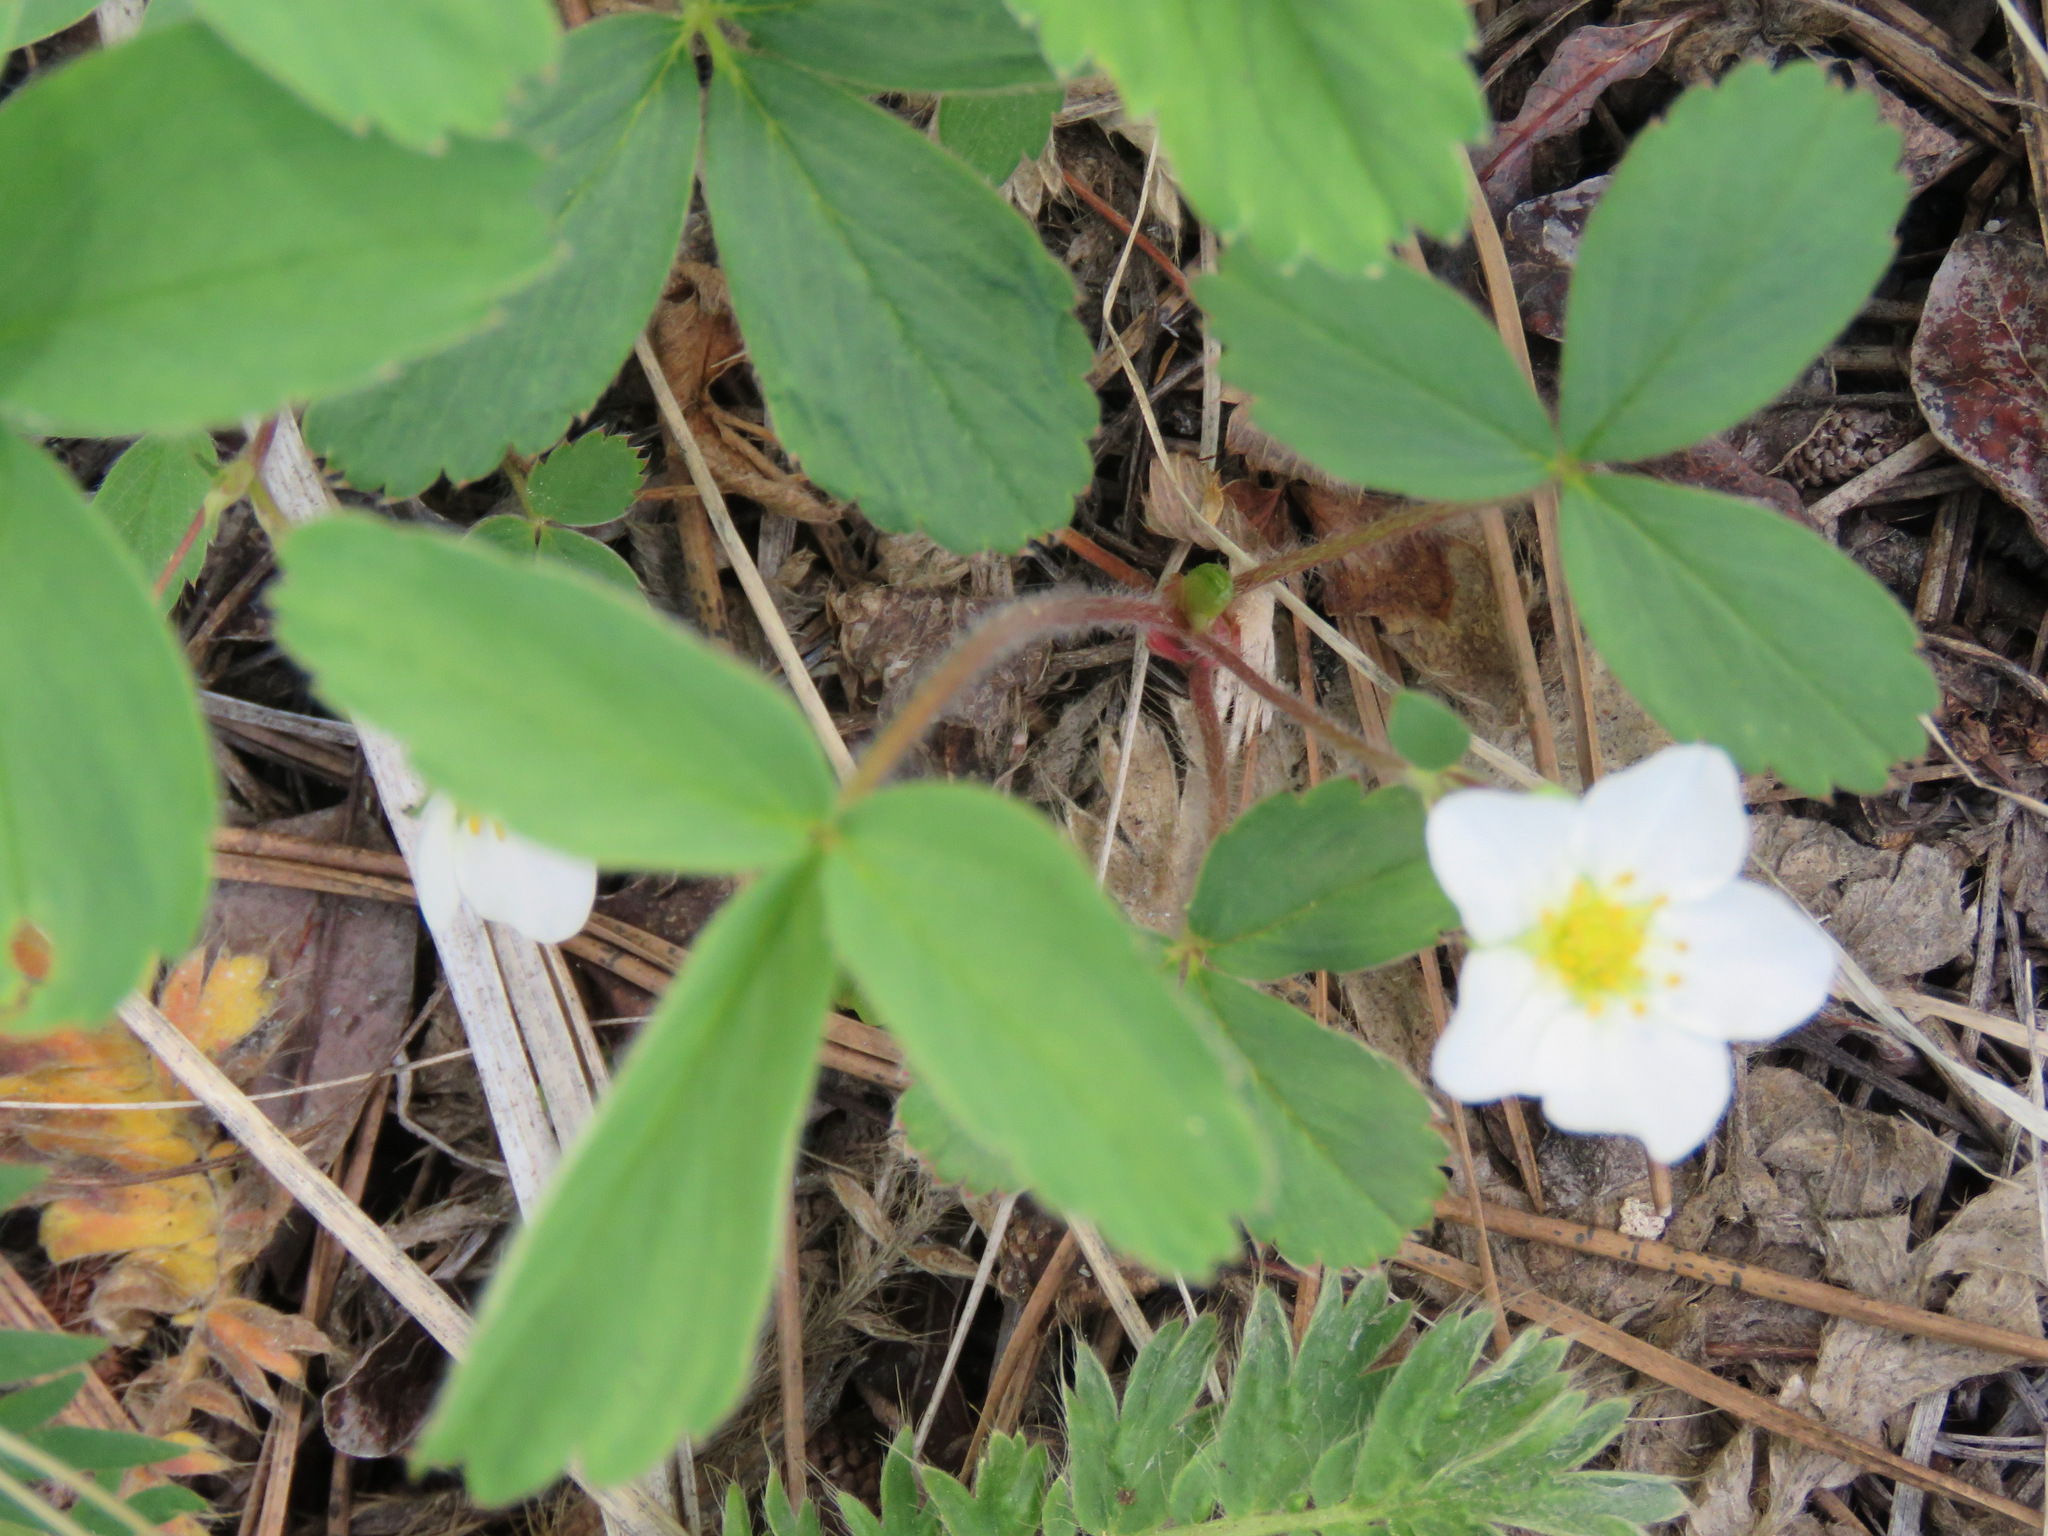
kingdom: Plantae
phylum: Tracheophyta
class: Magnoliopsida
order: Rosales
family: Rosaceae
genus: Fragaria
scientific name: Fragaria virginiana
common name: Thickleaved wild strawberry
